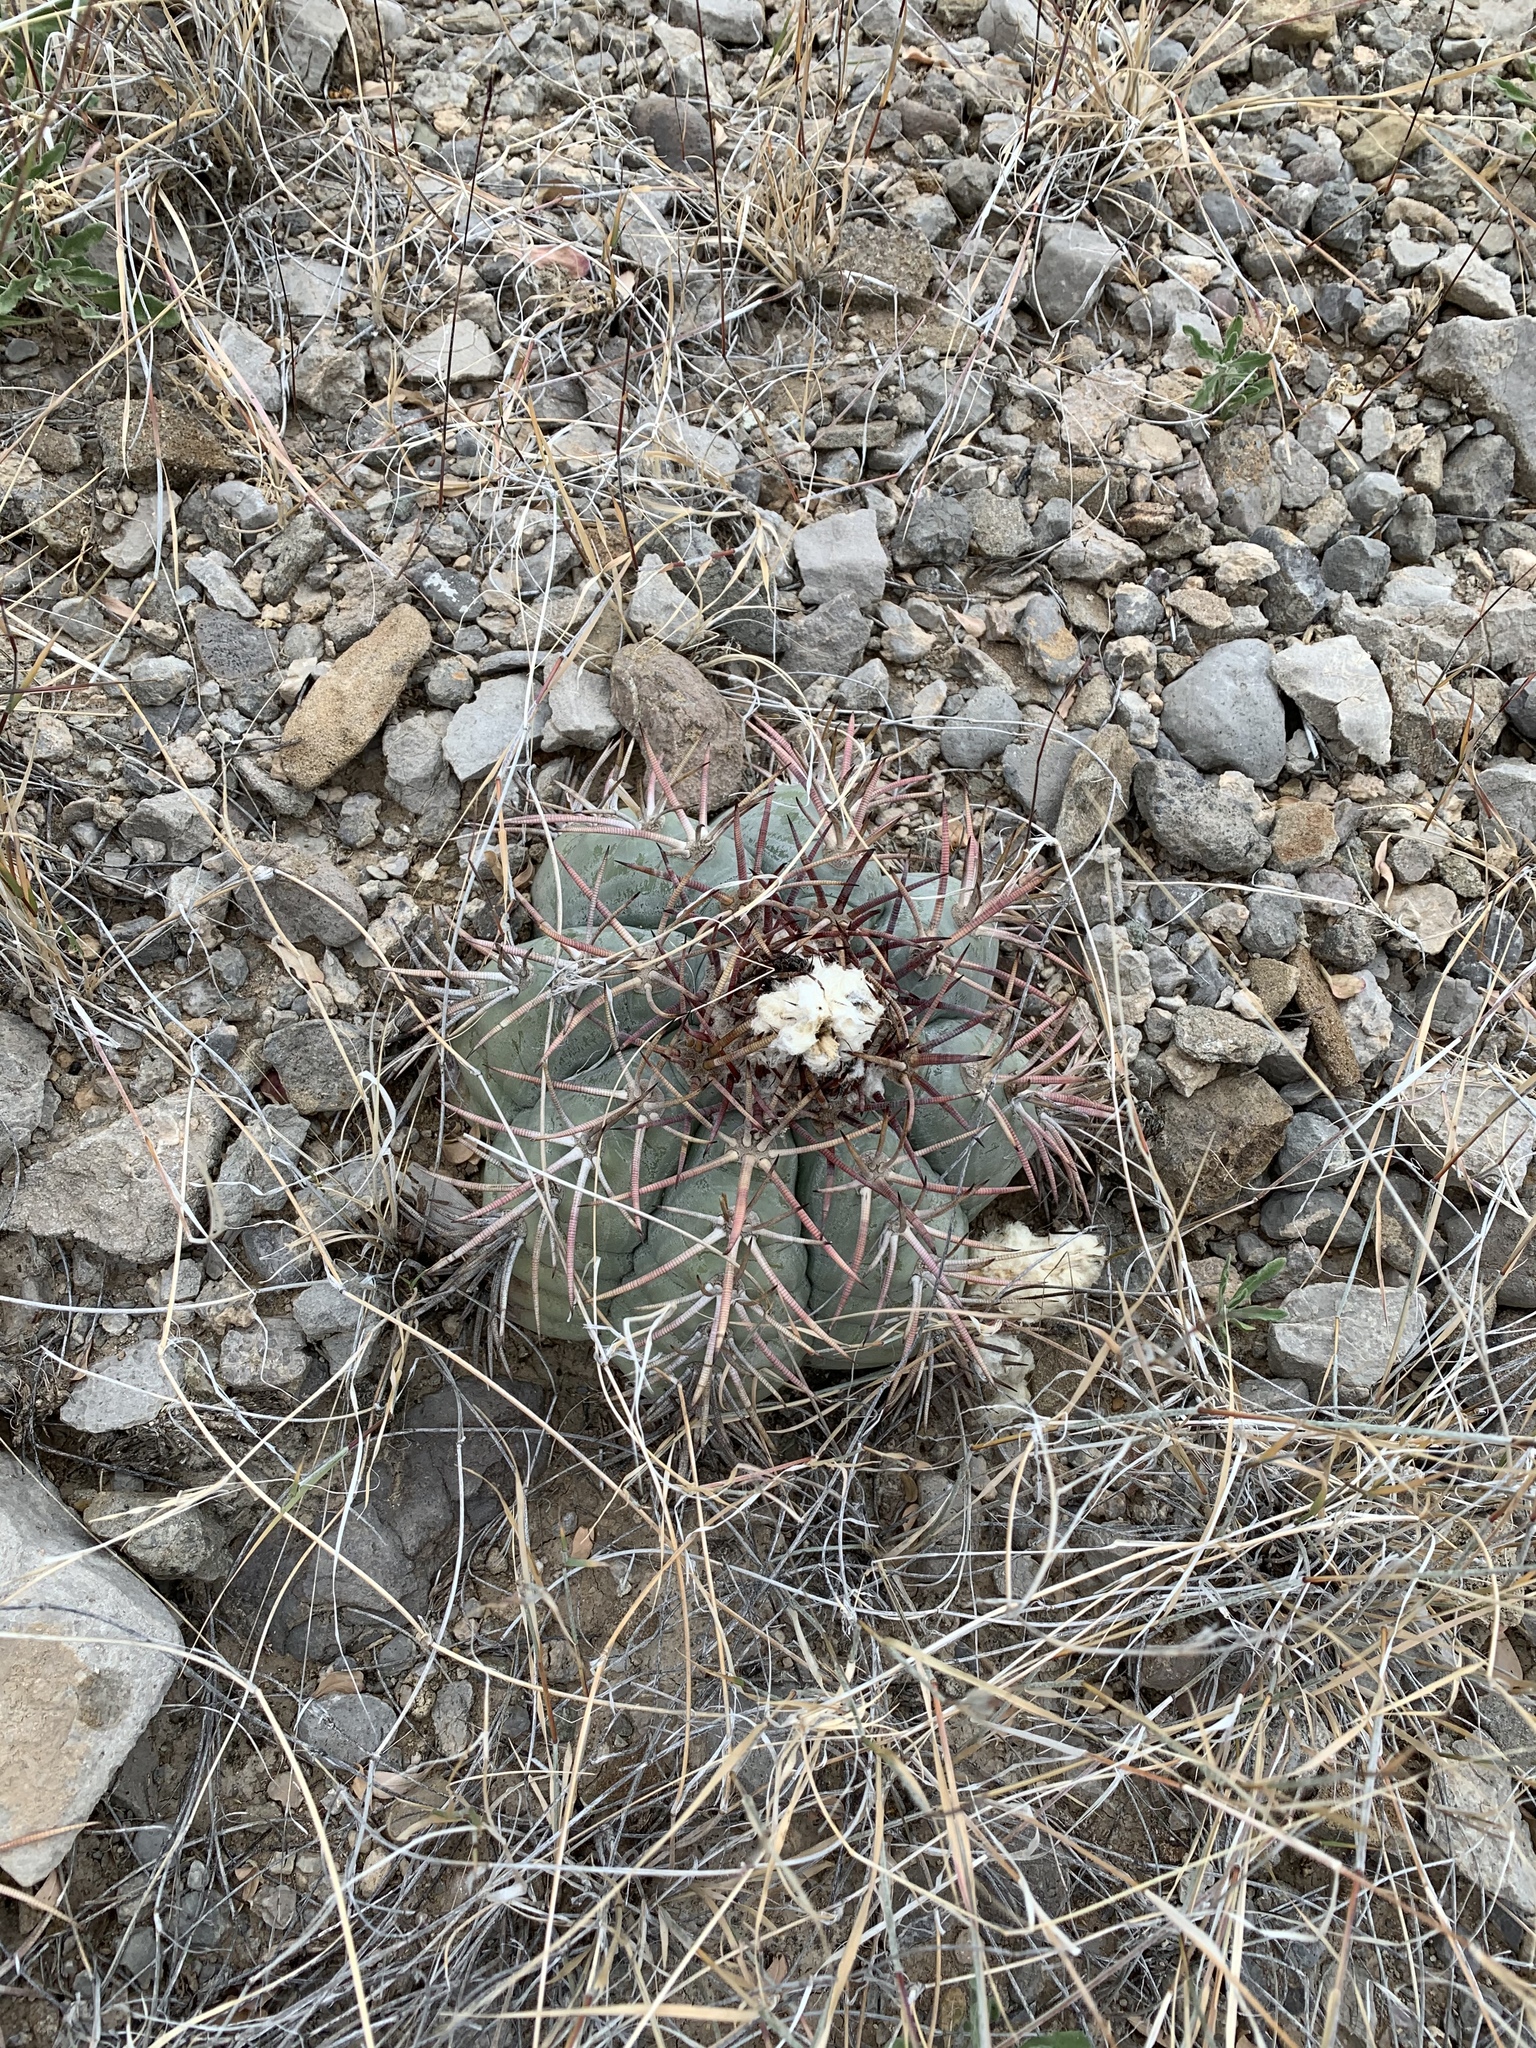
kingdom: Plantae
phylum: Tracheophyta
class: Magnoliopsida
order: Caryophyllales
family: Cactaceae
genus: Echinocactus
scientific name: Echinocactus horizonthalonius
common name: Devilshead
